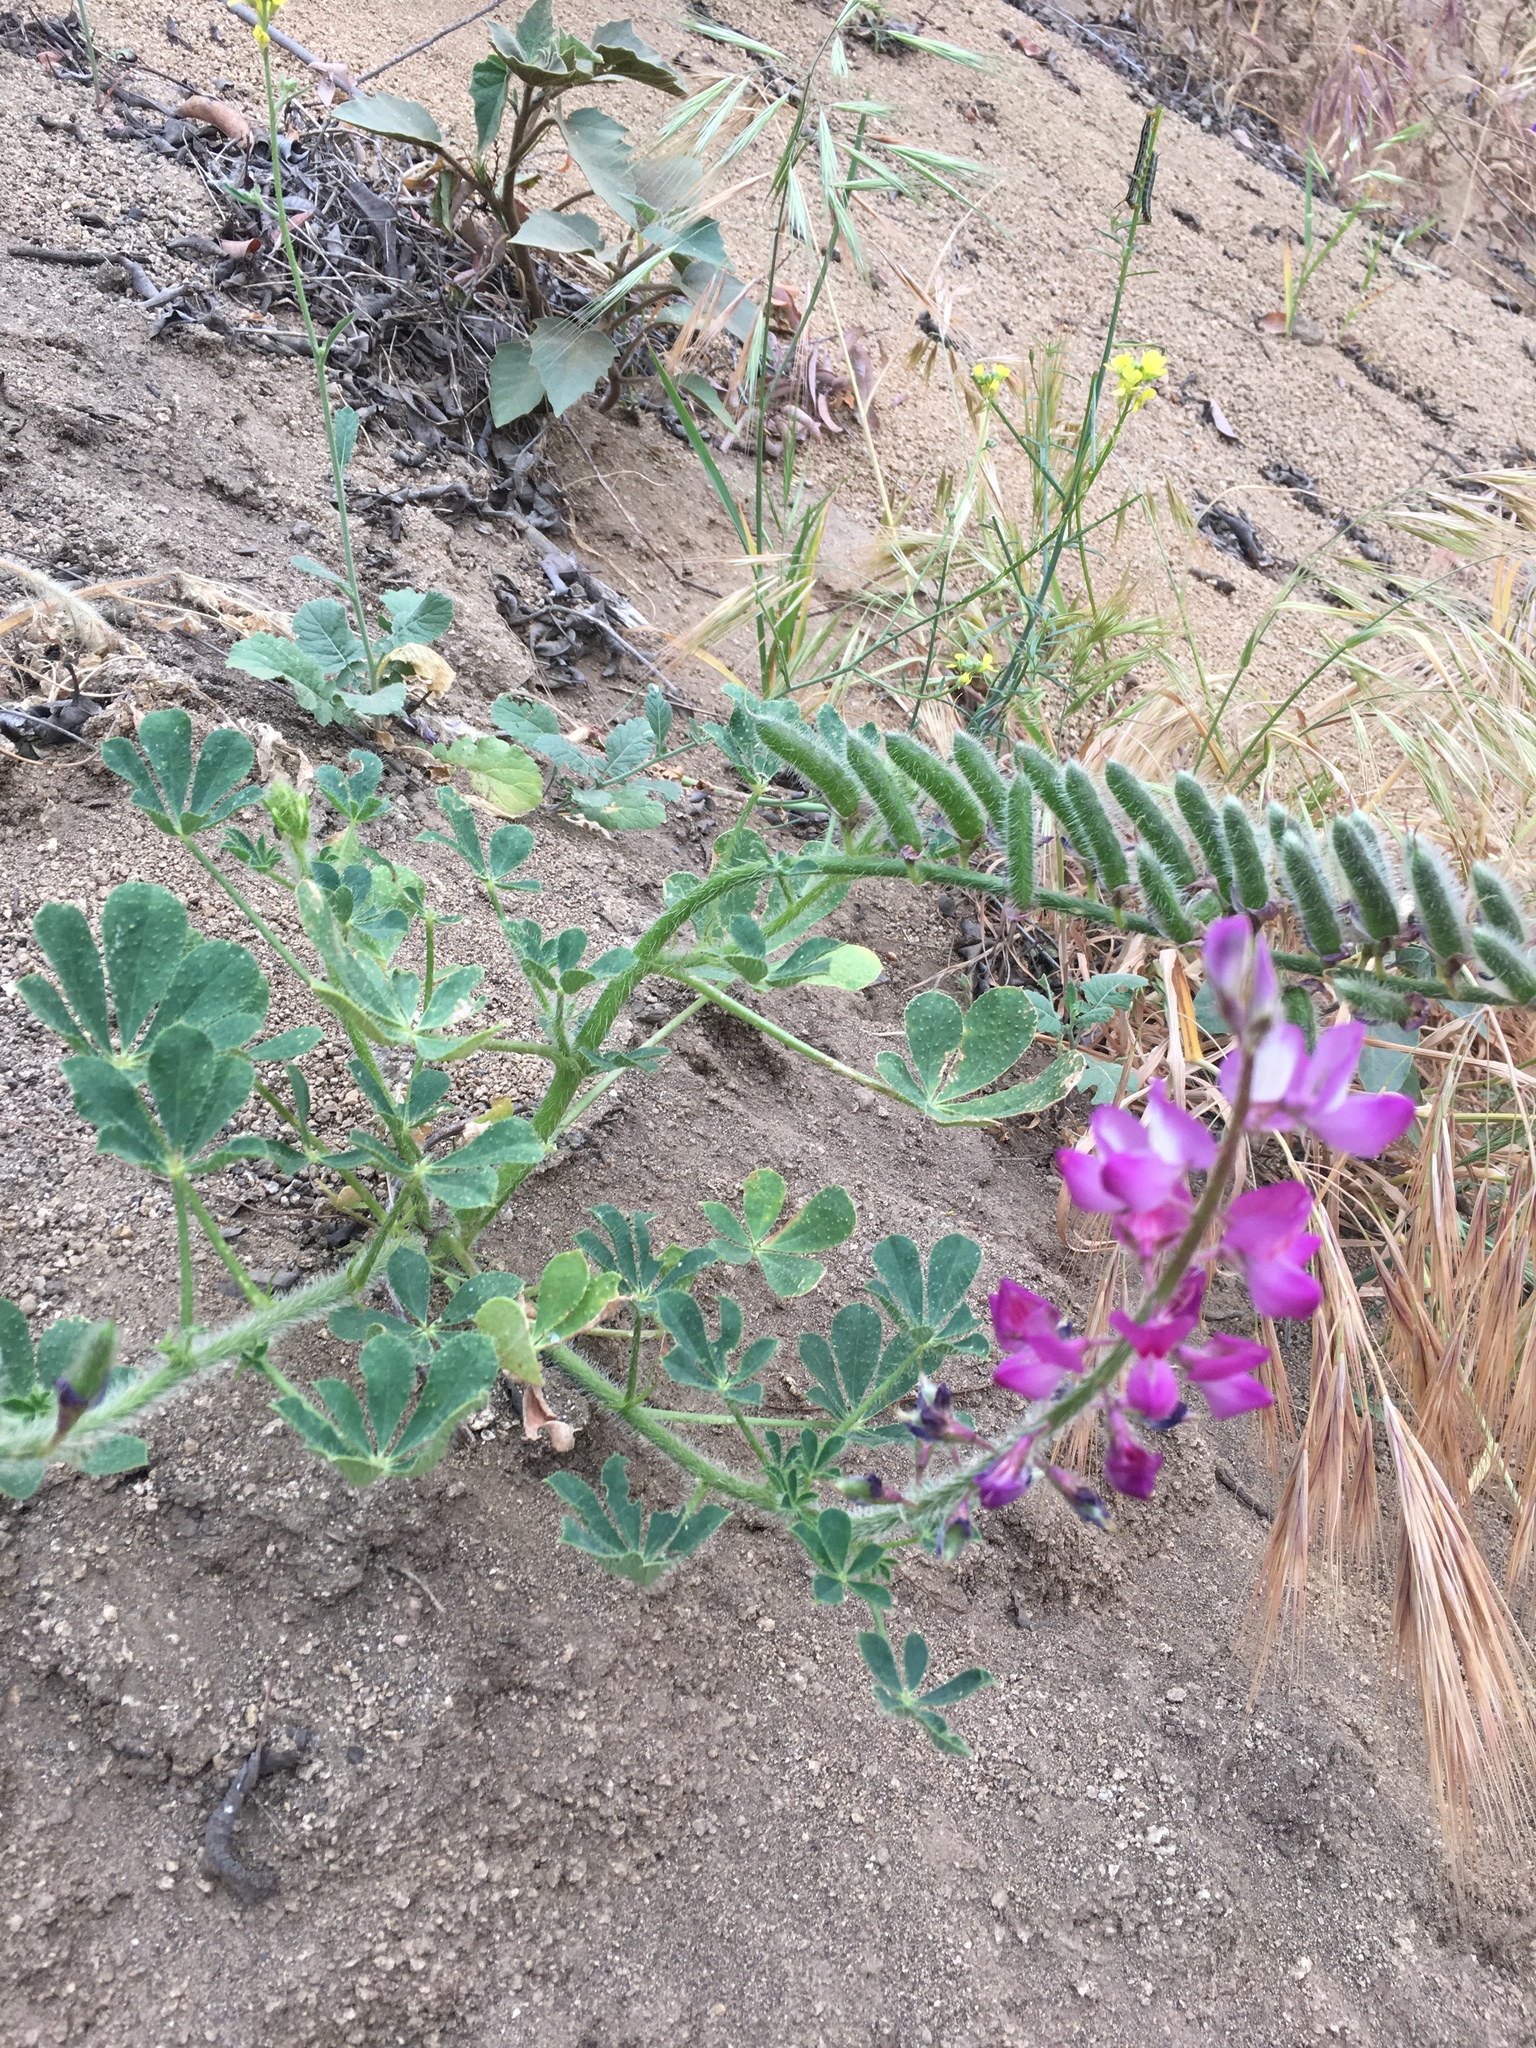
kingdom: Plantae
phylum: Tracheophyta
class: Magnoliopsida
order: Fabales
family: Fabaceae
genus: Lupinus
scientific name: Lupinus hirsutissimus
